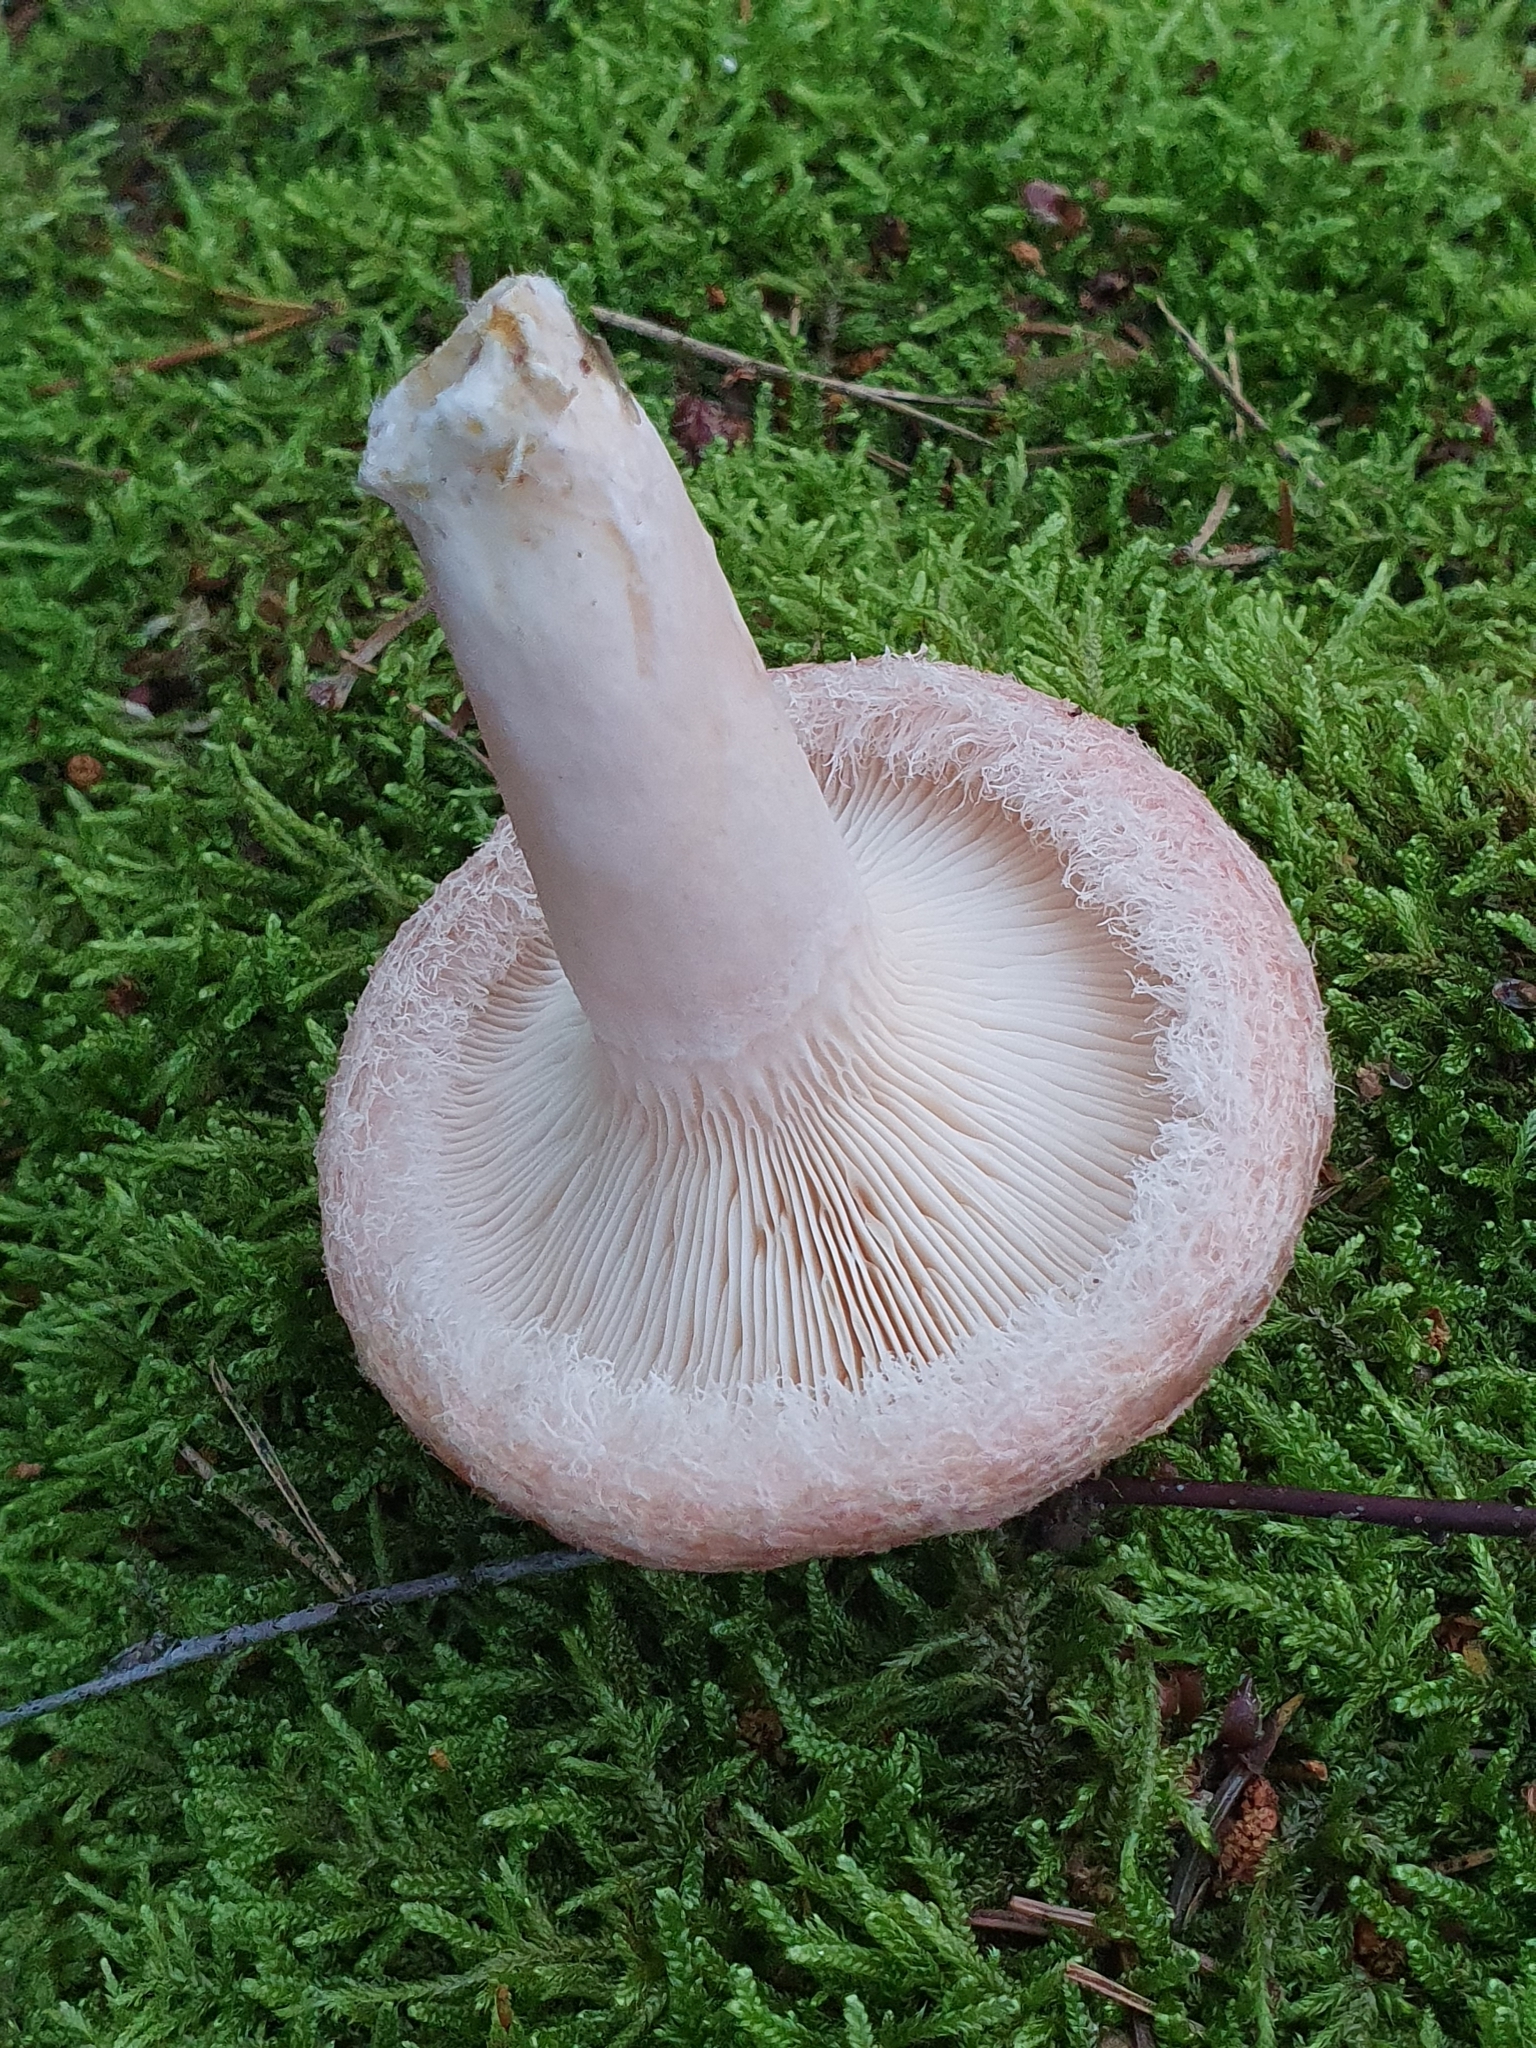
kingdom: Fungi
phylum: Basidiomycota
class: Agaricomycetes
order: Russulales
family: Russulaceae
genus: Lactarius
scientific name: Lactarius torminosus
